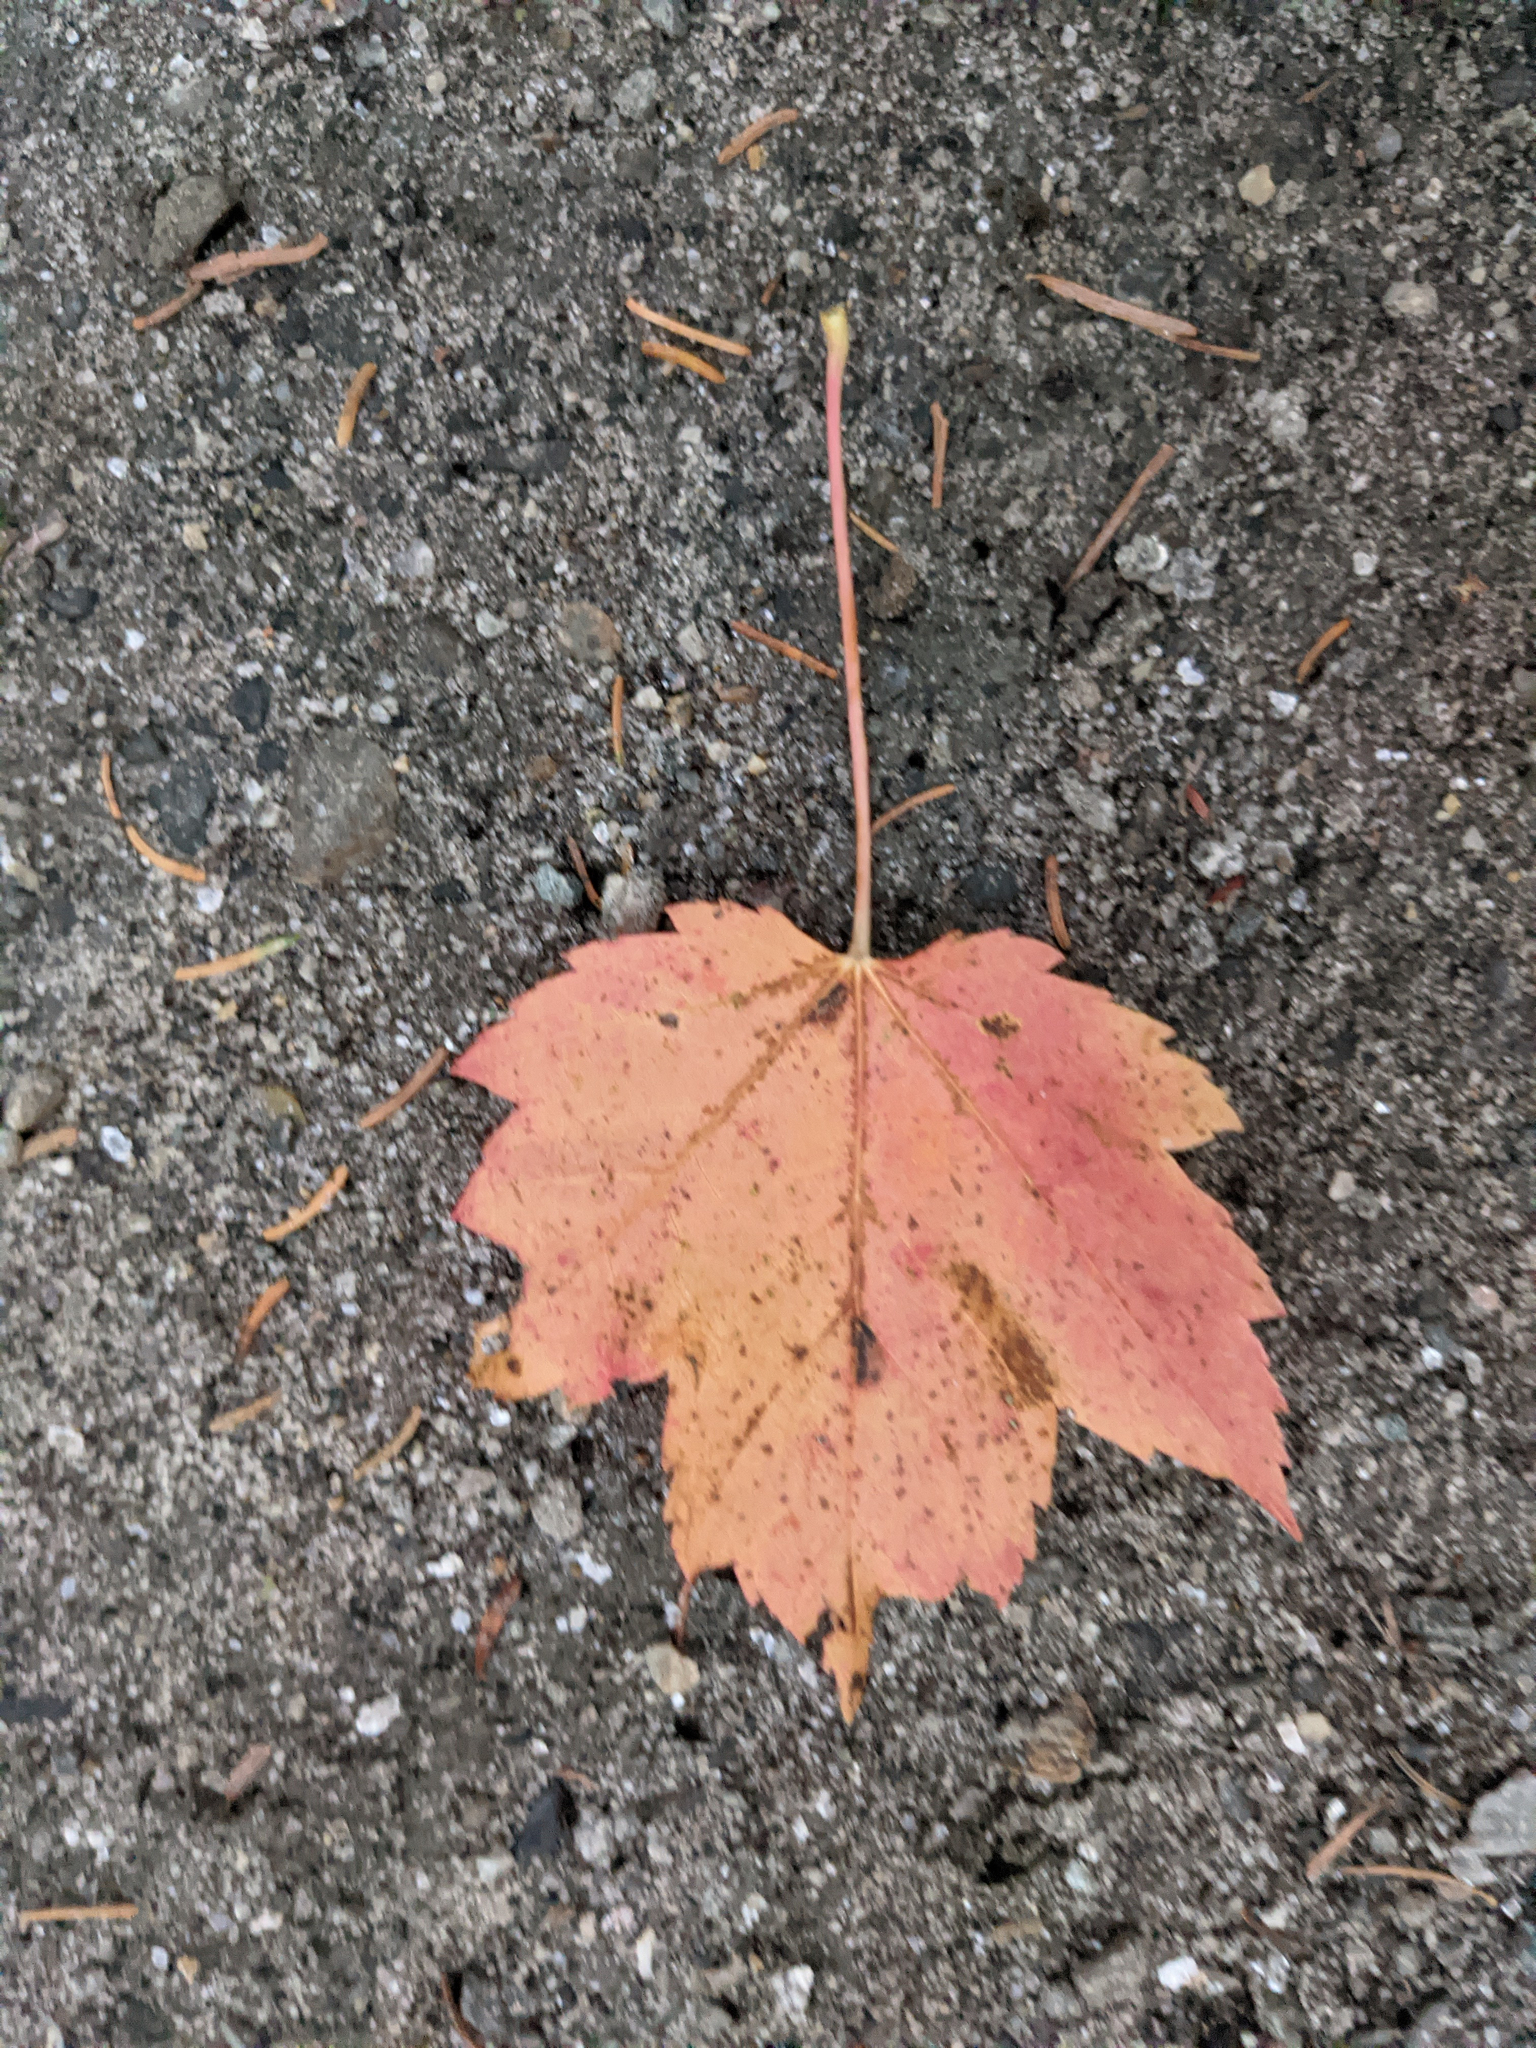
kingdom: Plantae
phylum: Tracheophyta
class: Magnoliopsida
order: Sapindales
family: Sapindaceae
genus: Acer
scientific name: Acer rubrum
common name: Red maple
